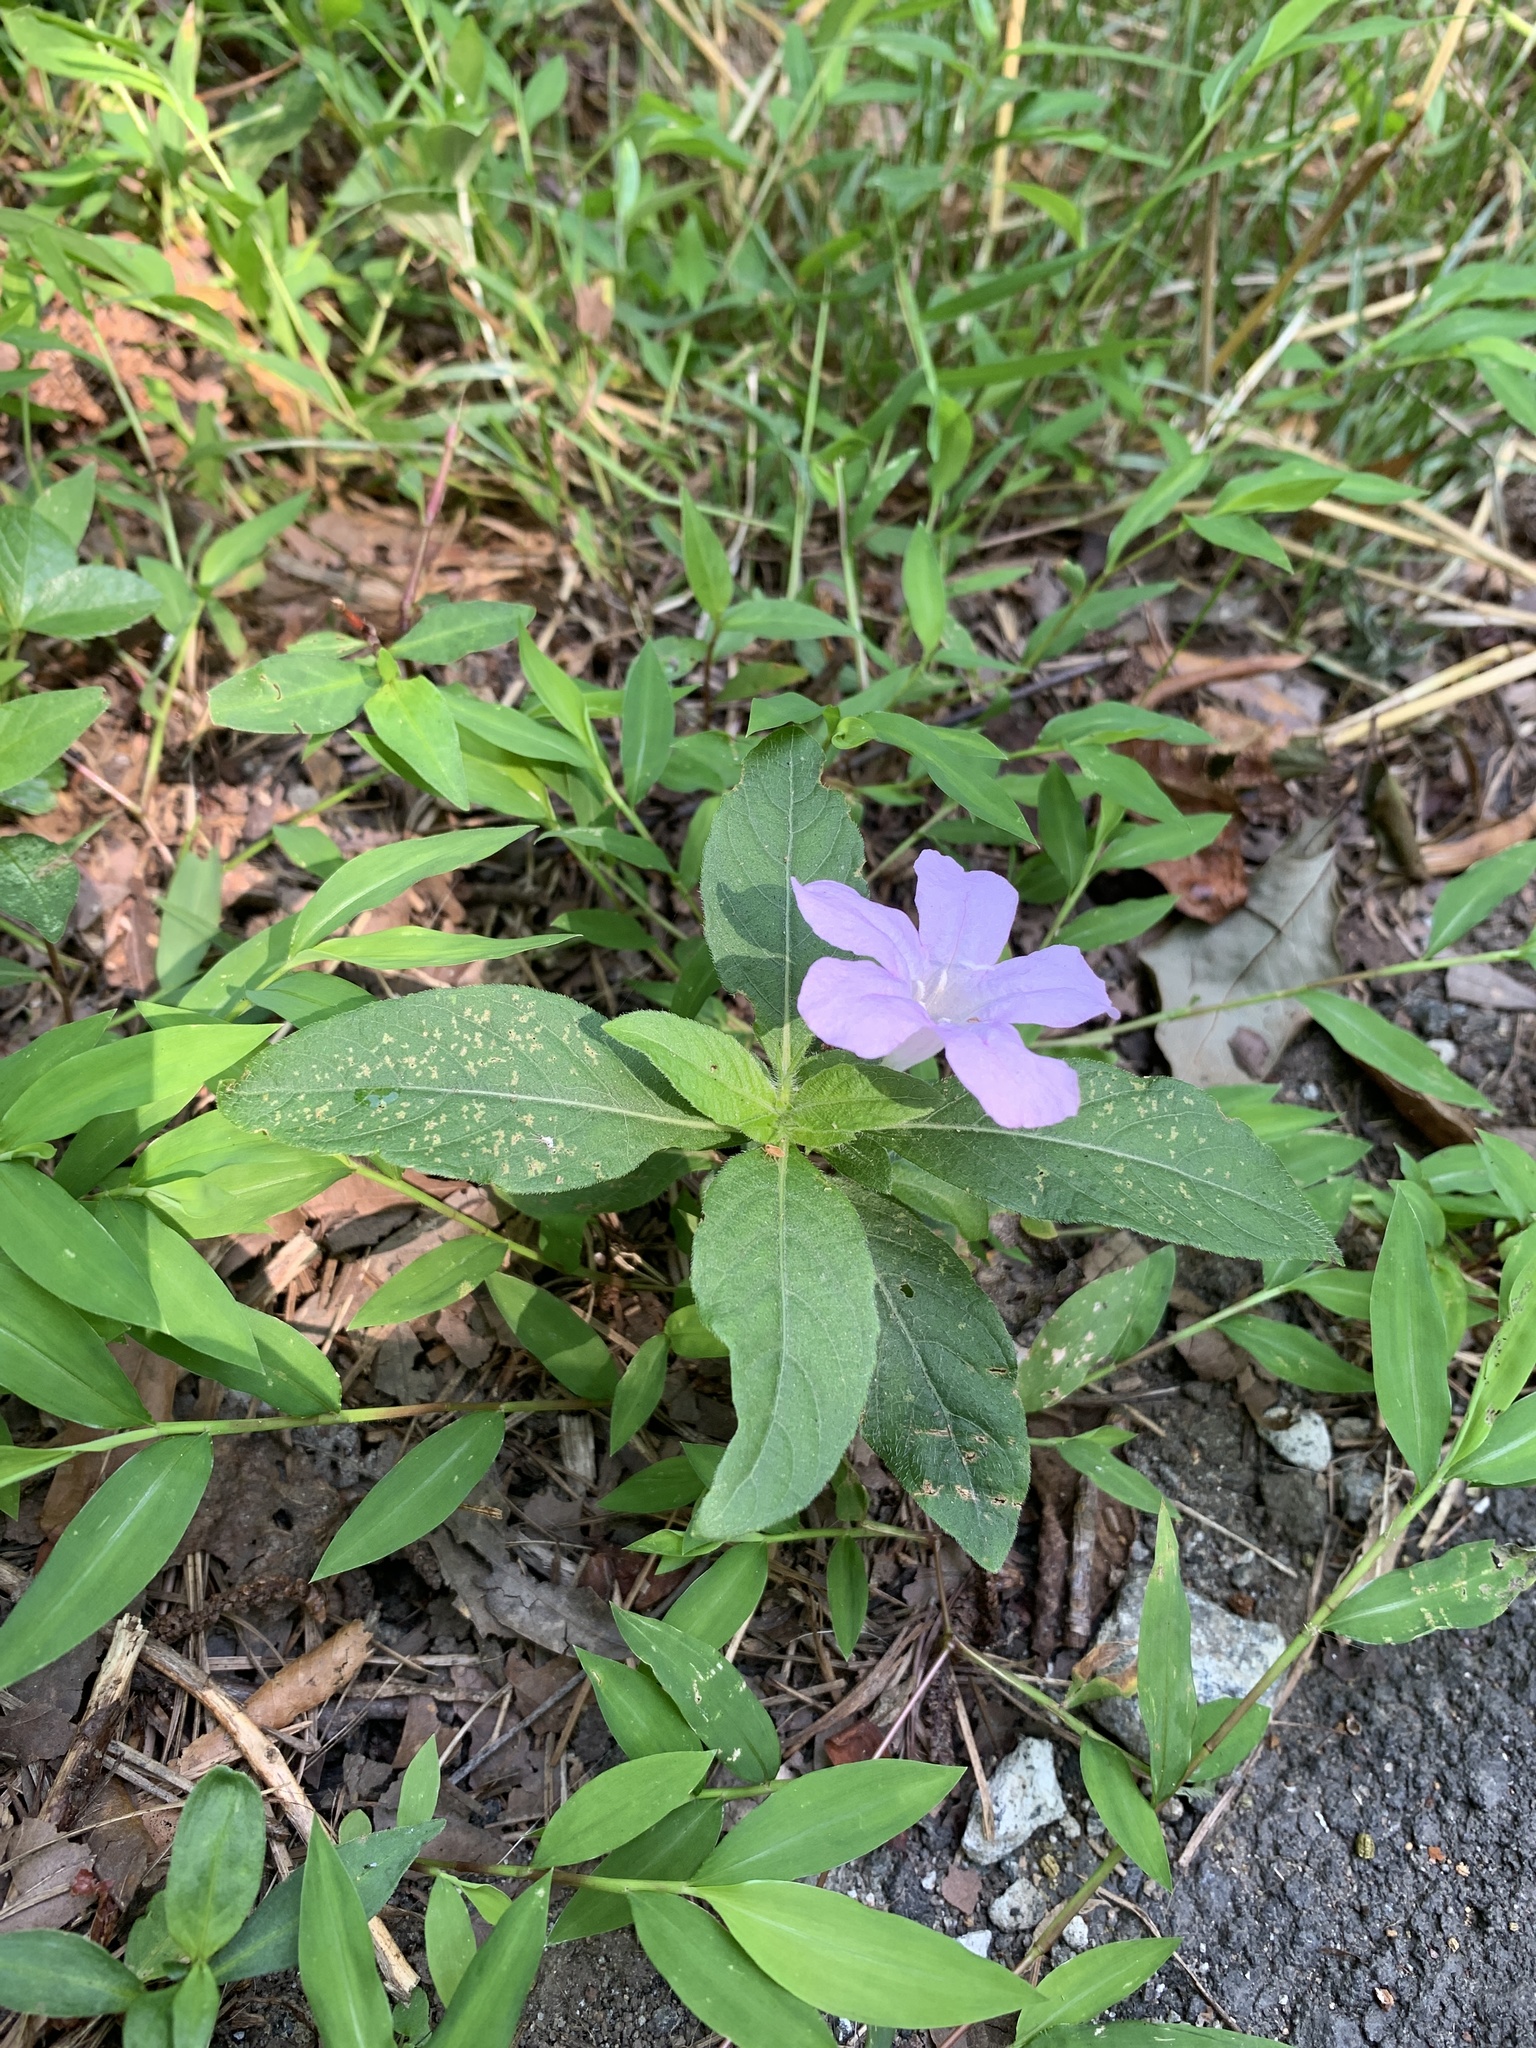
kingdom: Plantae
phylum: Tracheophyta
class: Magnoliopsida
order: Lamiales
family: Acanthaceae
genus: Ruellia
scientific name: Ruellia caroliniensis
